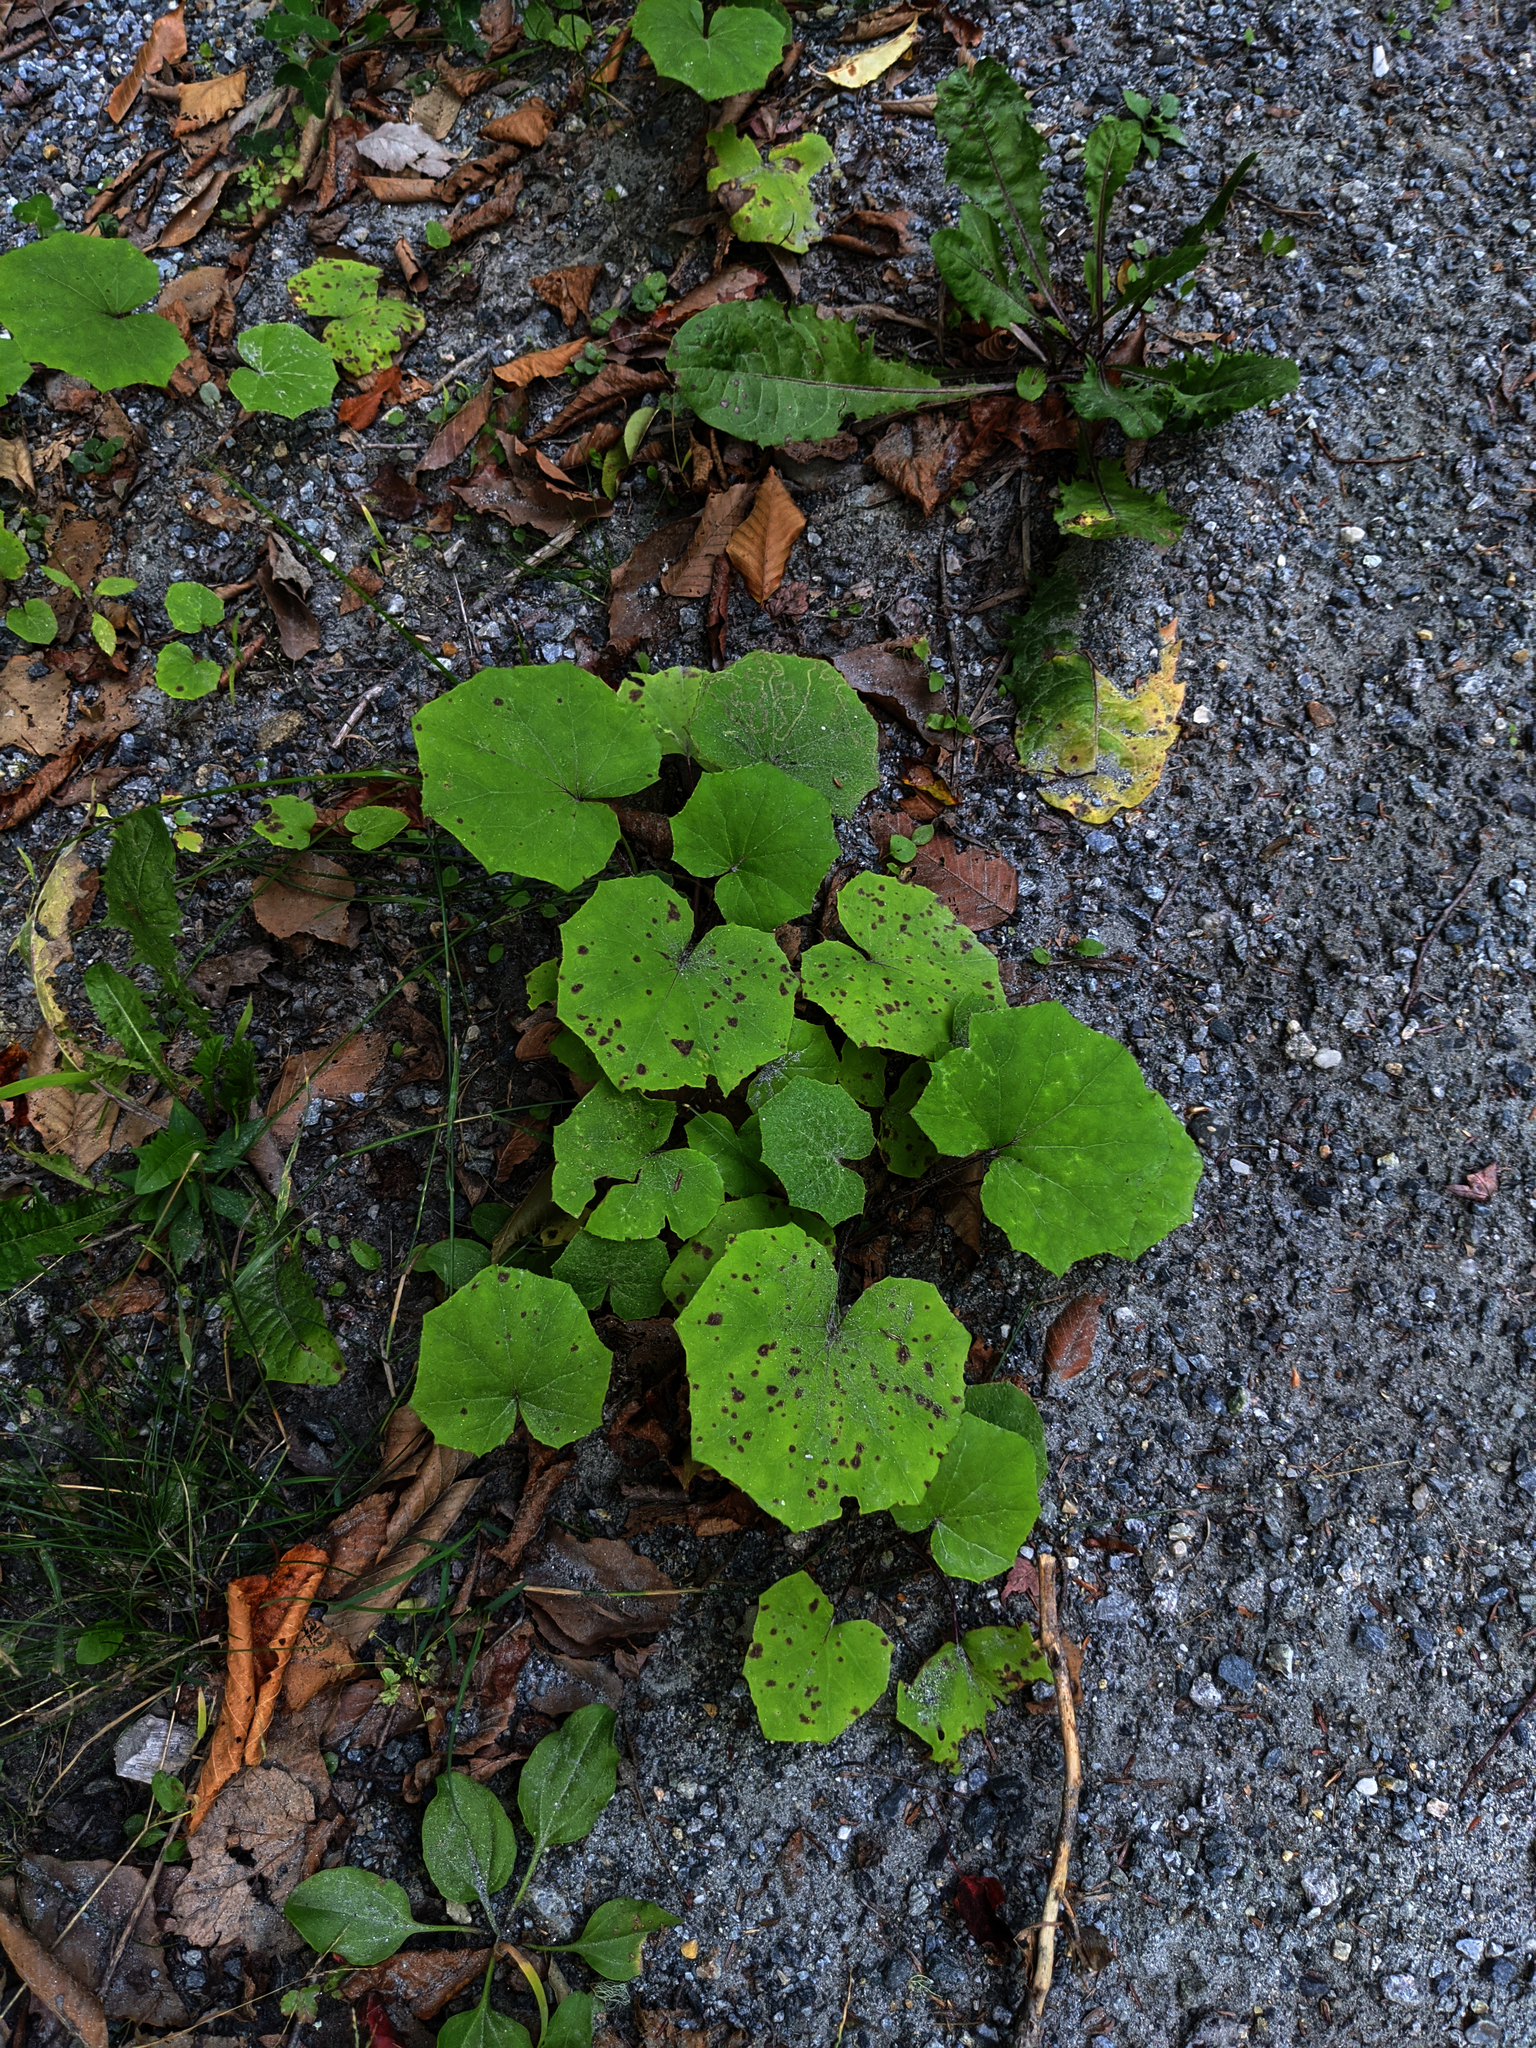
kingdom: Plantae
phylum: Tracheophyta
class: Magnoliopsida
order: Asterales
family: Asteraceae
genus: Tussilago
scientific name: Tussilago farfara
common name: Coltsfoot
